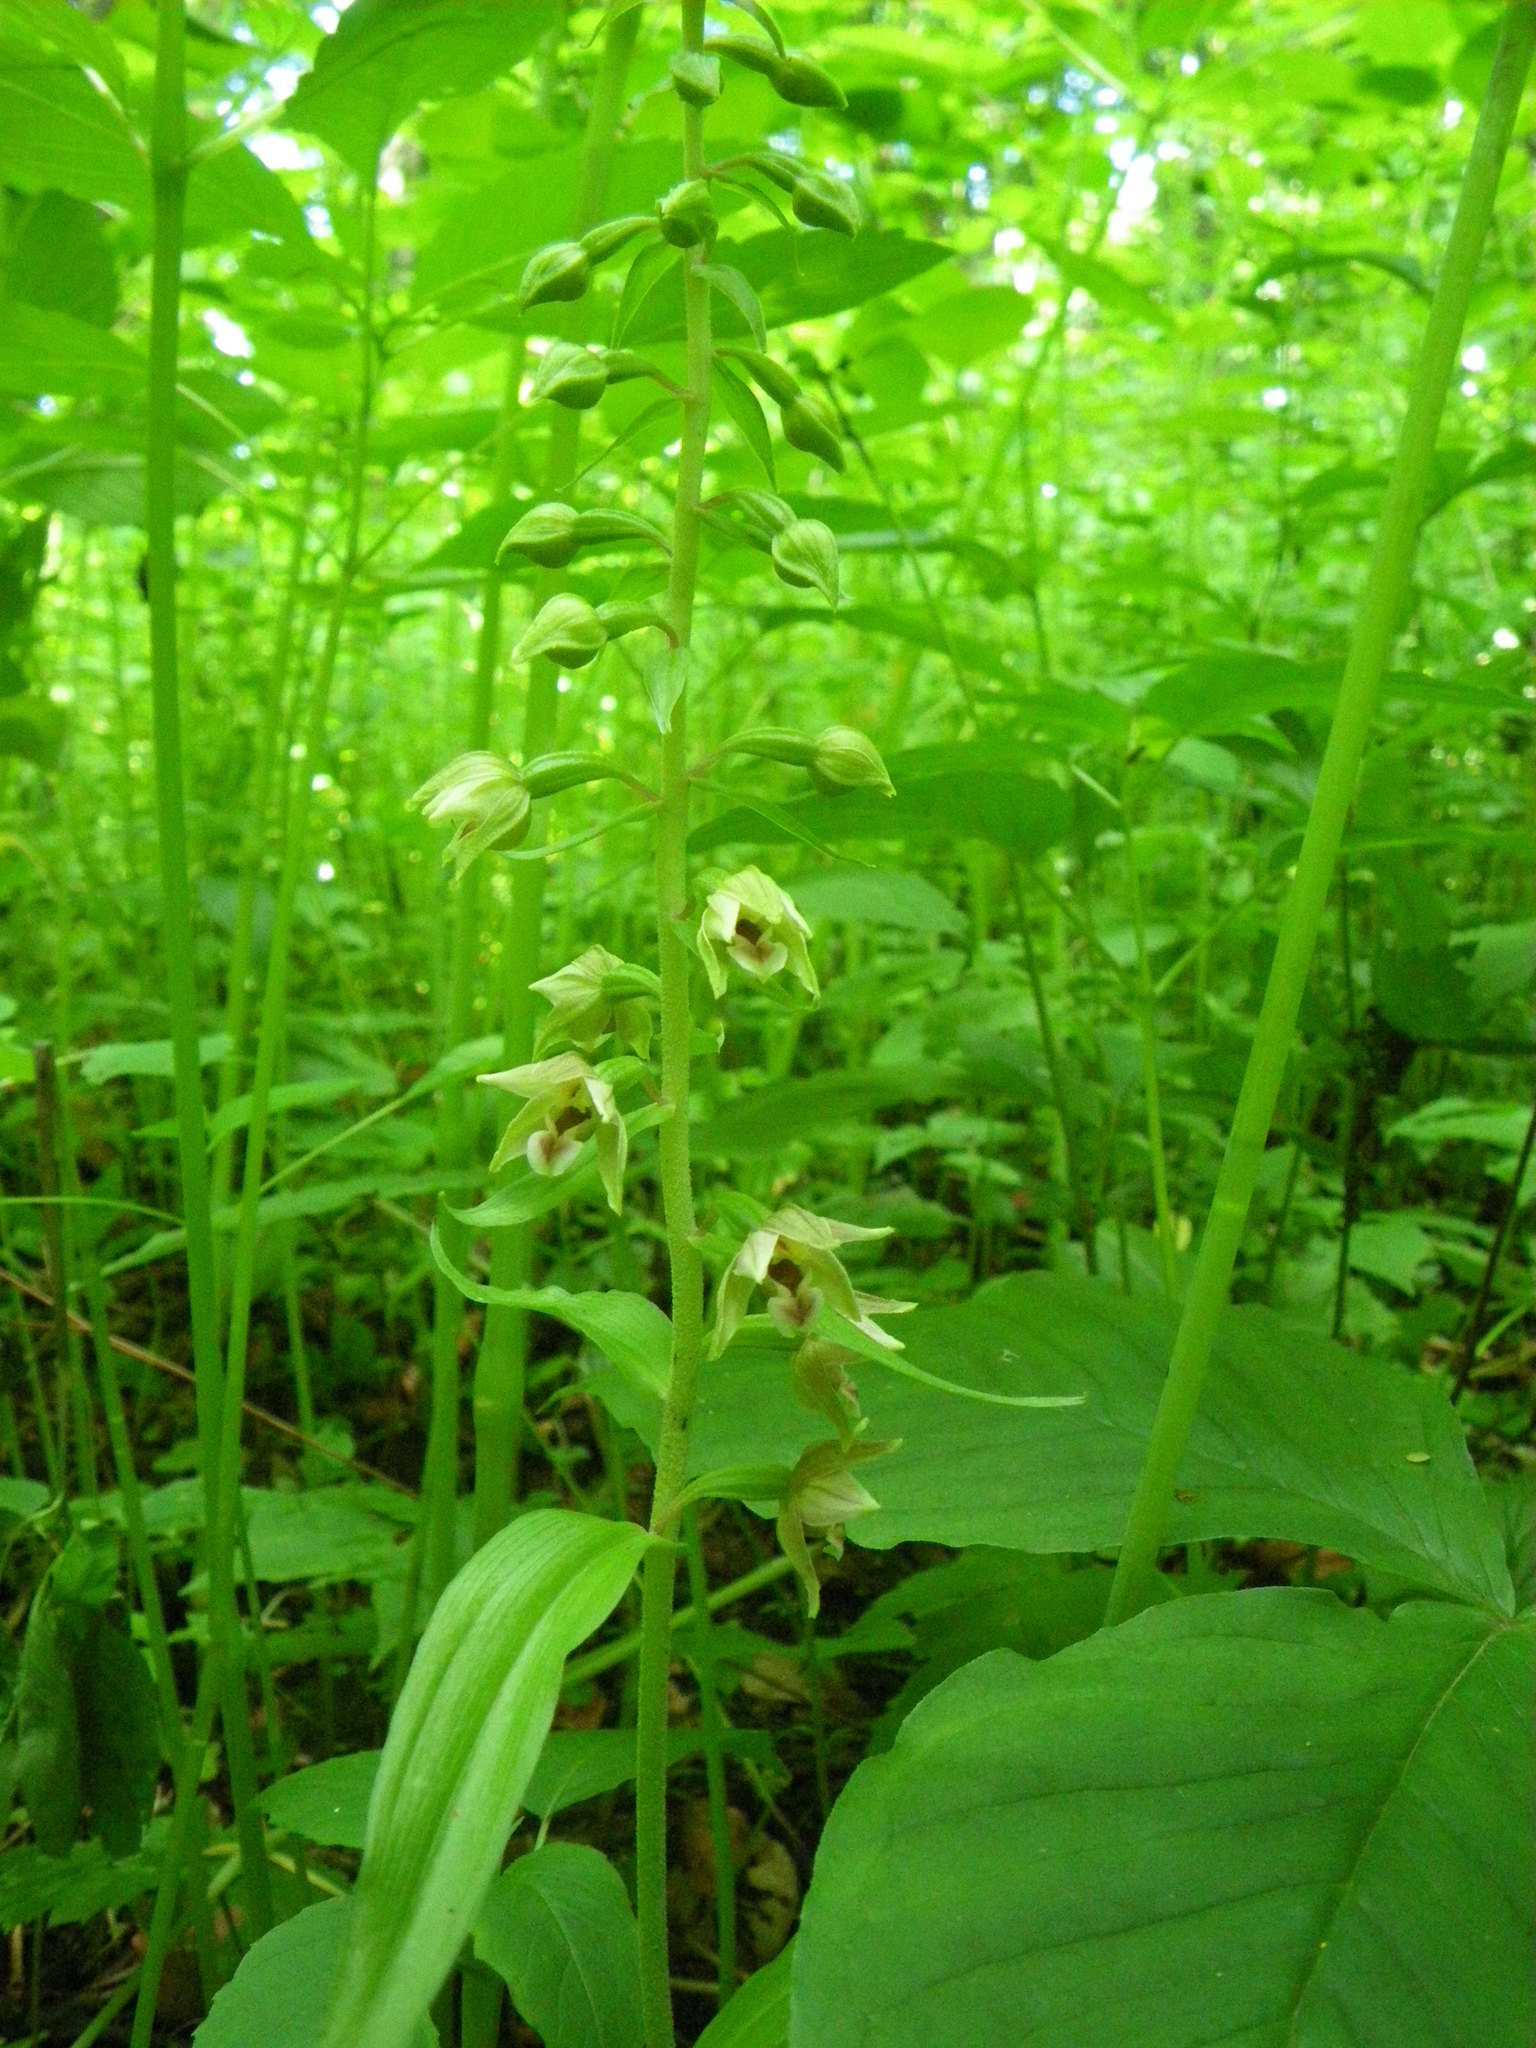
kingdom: Plantae
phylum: Tracheophyta
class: Liliopsida
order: Asparagales
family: Orchidaceae
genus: Epipactis
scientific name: Epipactis helleborine
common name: Broad-leaved helleborine
